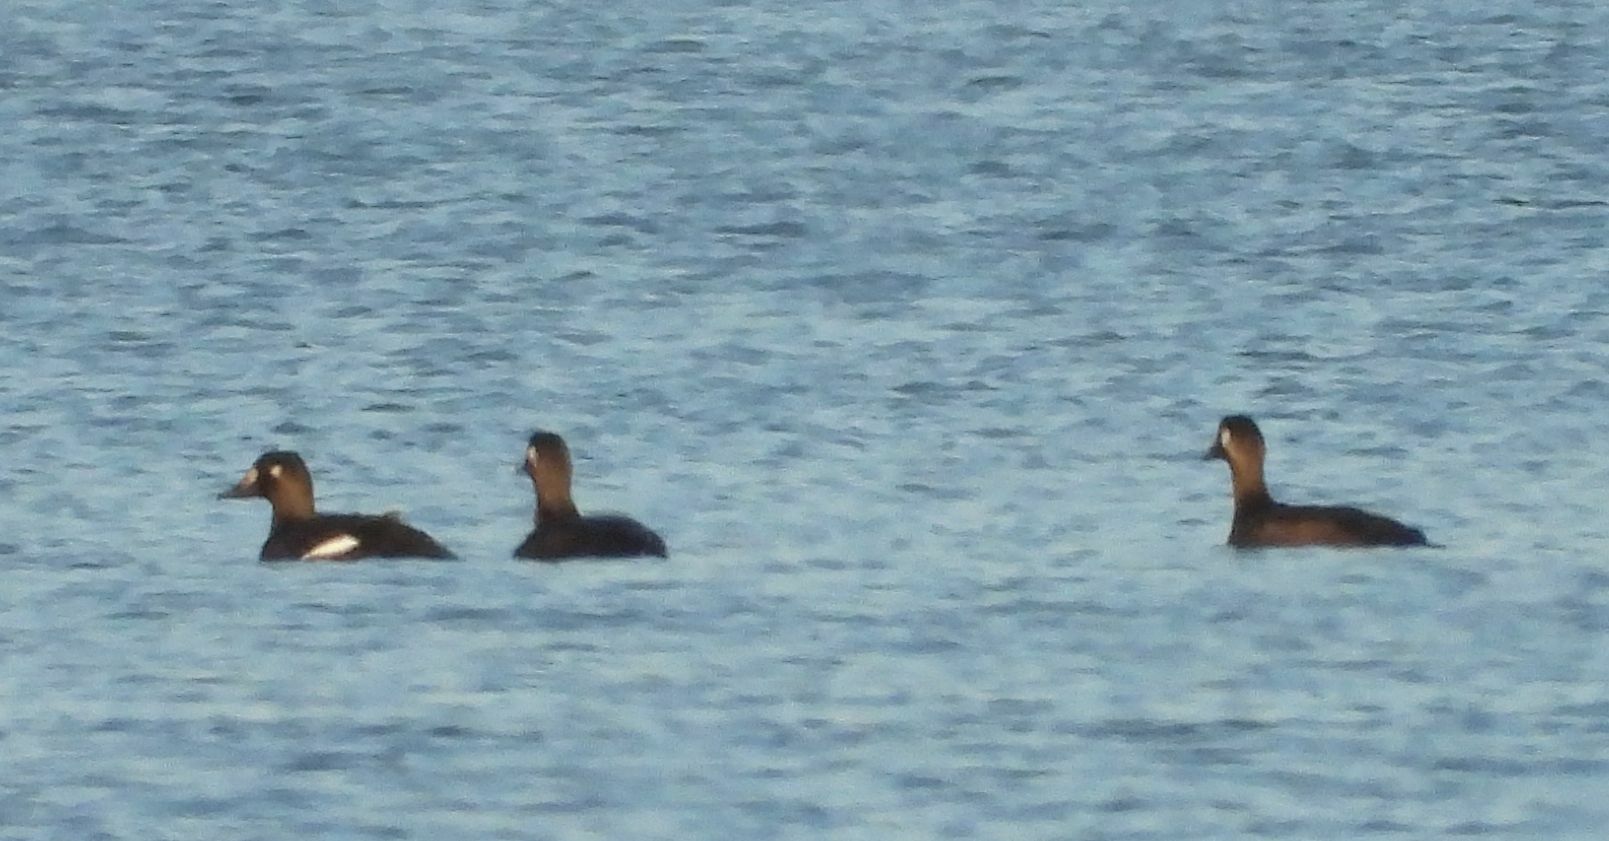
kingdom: Animalia
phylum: Chordata
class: Aves
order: Anseriformes
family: Anatidae
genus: Melanitta
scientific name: Melanitta deglandi
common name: White-winged scoter
